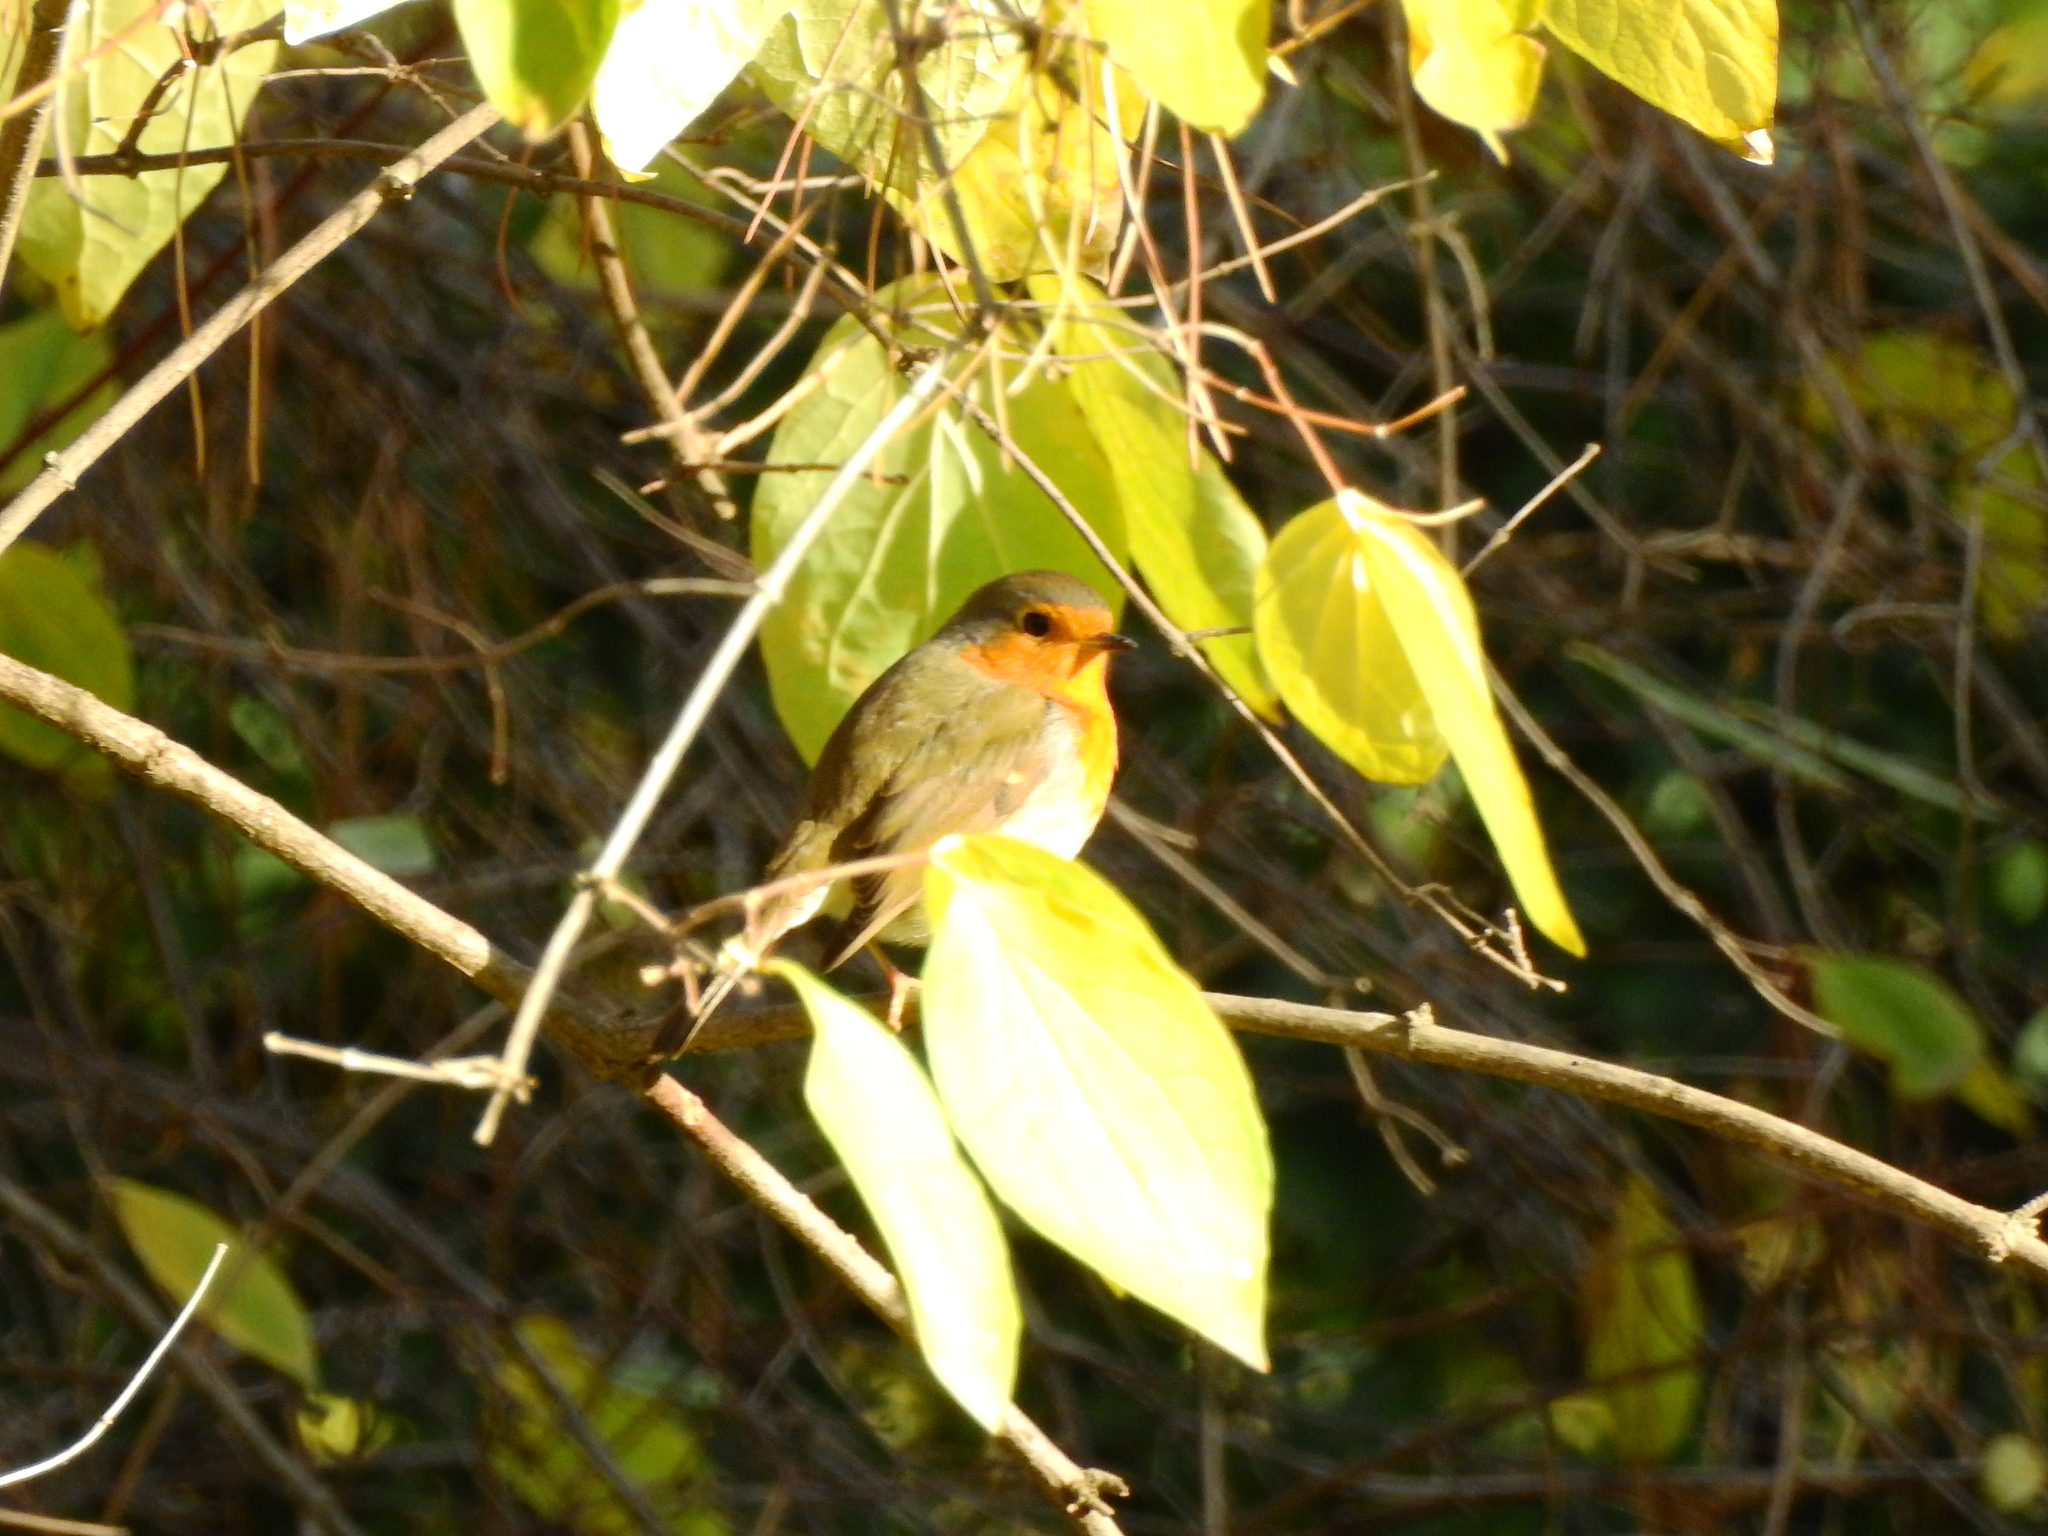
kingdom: Animalia
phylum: Chordata
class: Aves
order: Passeriformes
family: Muscicapidae
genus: Erithacus
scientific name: Erithacus rubecula
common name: European robin
